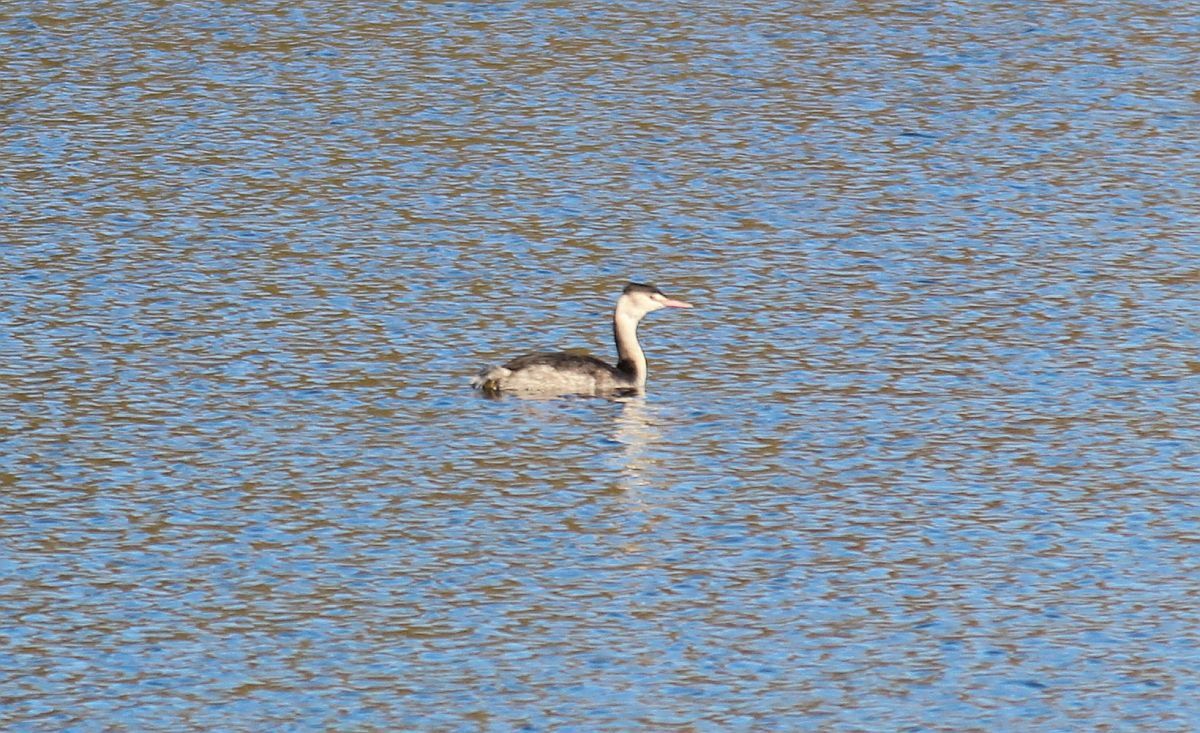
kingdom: Animalia
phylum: Chordata
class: Aves
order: Podicipediformes
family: Podicipedidae
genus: Podiceps
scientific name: Podiceps cristatus
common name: Great crested grebe
